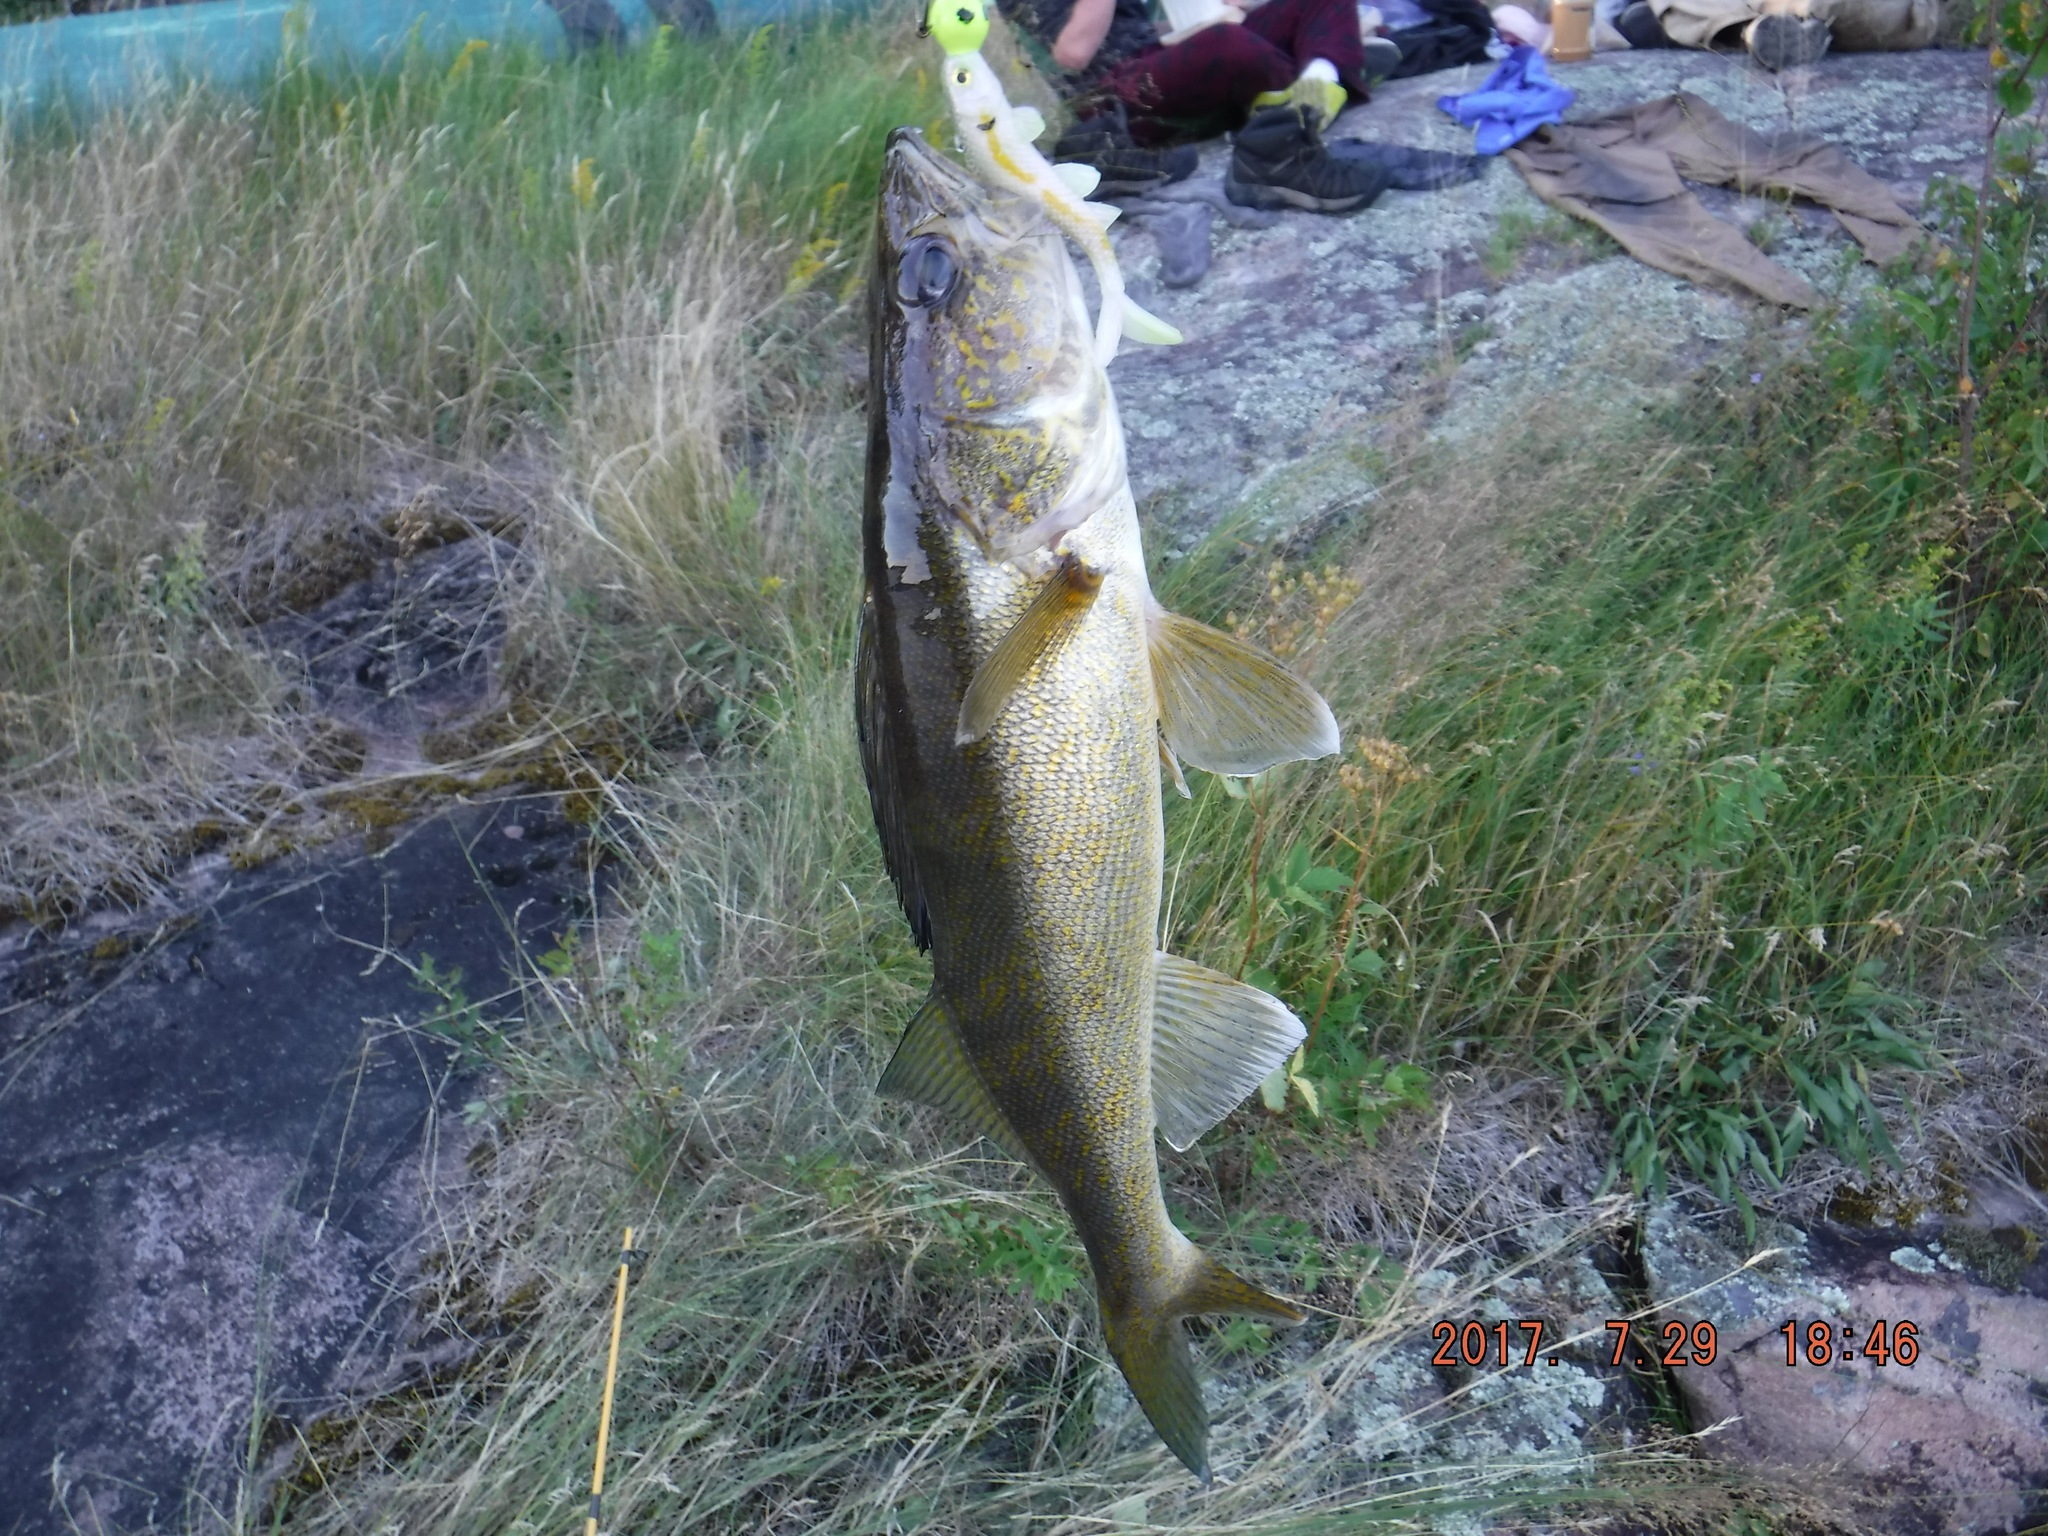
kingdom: Animalia
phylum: Chordata
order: Perciformes
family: Percidae
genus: Sander
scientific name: Sander vitreus
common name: Walleye
